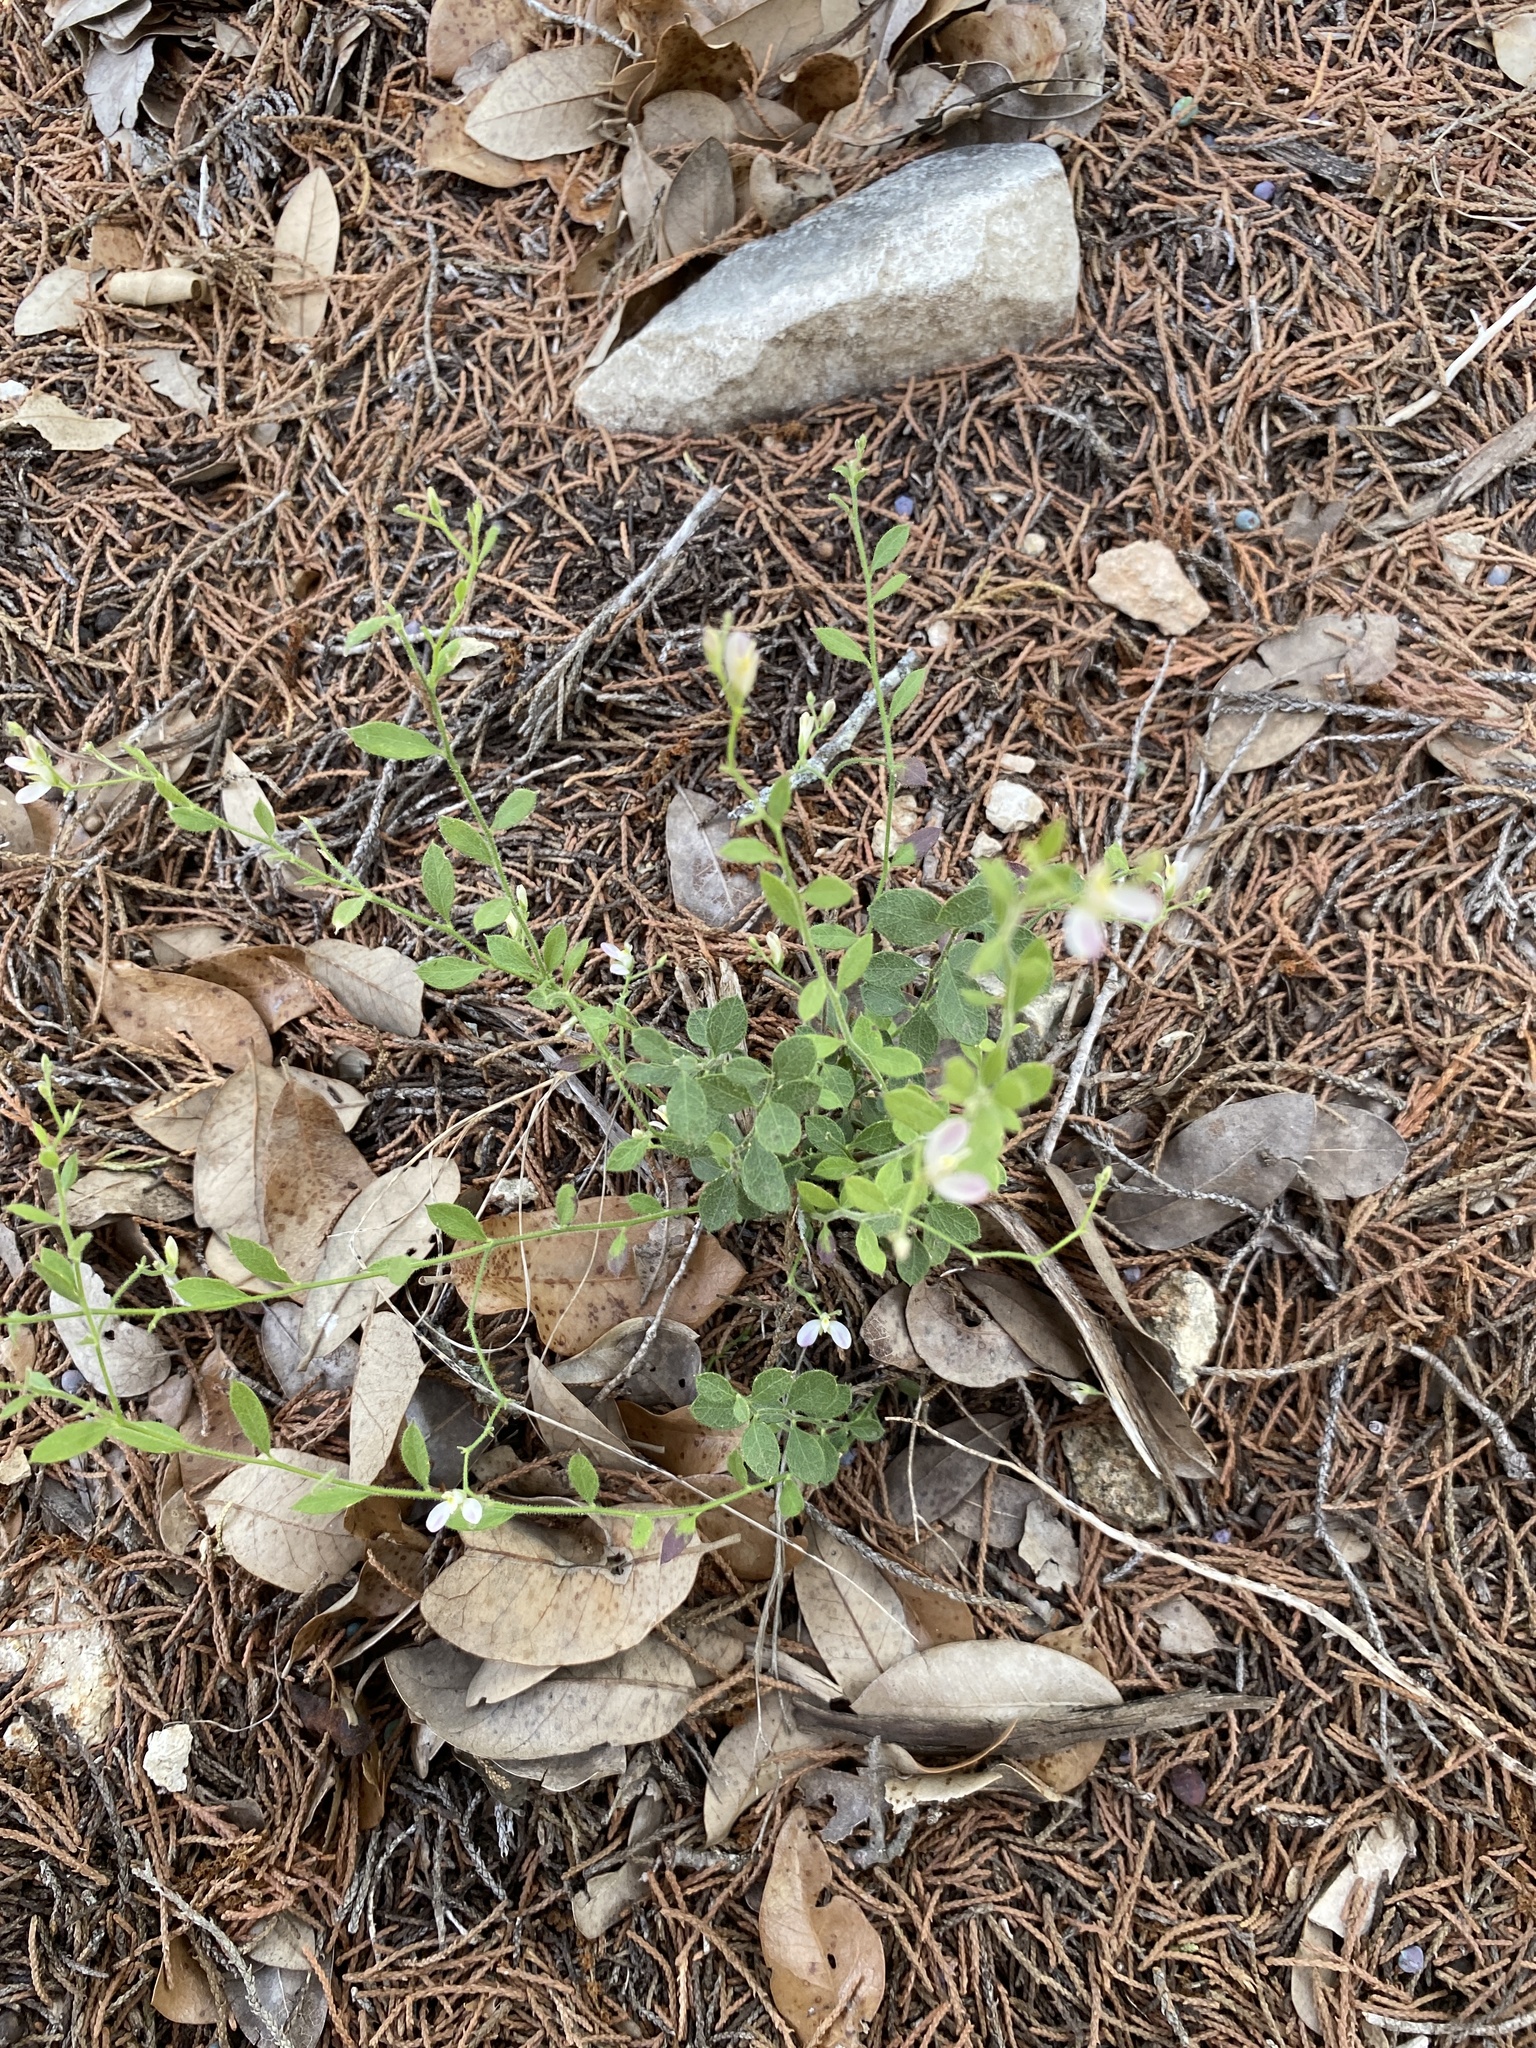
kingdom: Plantae
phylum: Tracheophyta
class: Magnoliopsida
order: Fabales
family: Polygalaceae
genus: Rhinotropis
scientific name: Rhinotropis lindheimeri
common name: Shrubby milkwort
